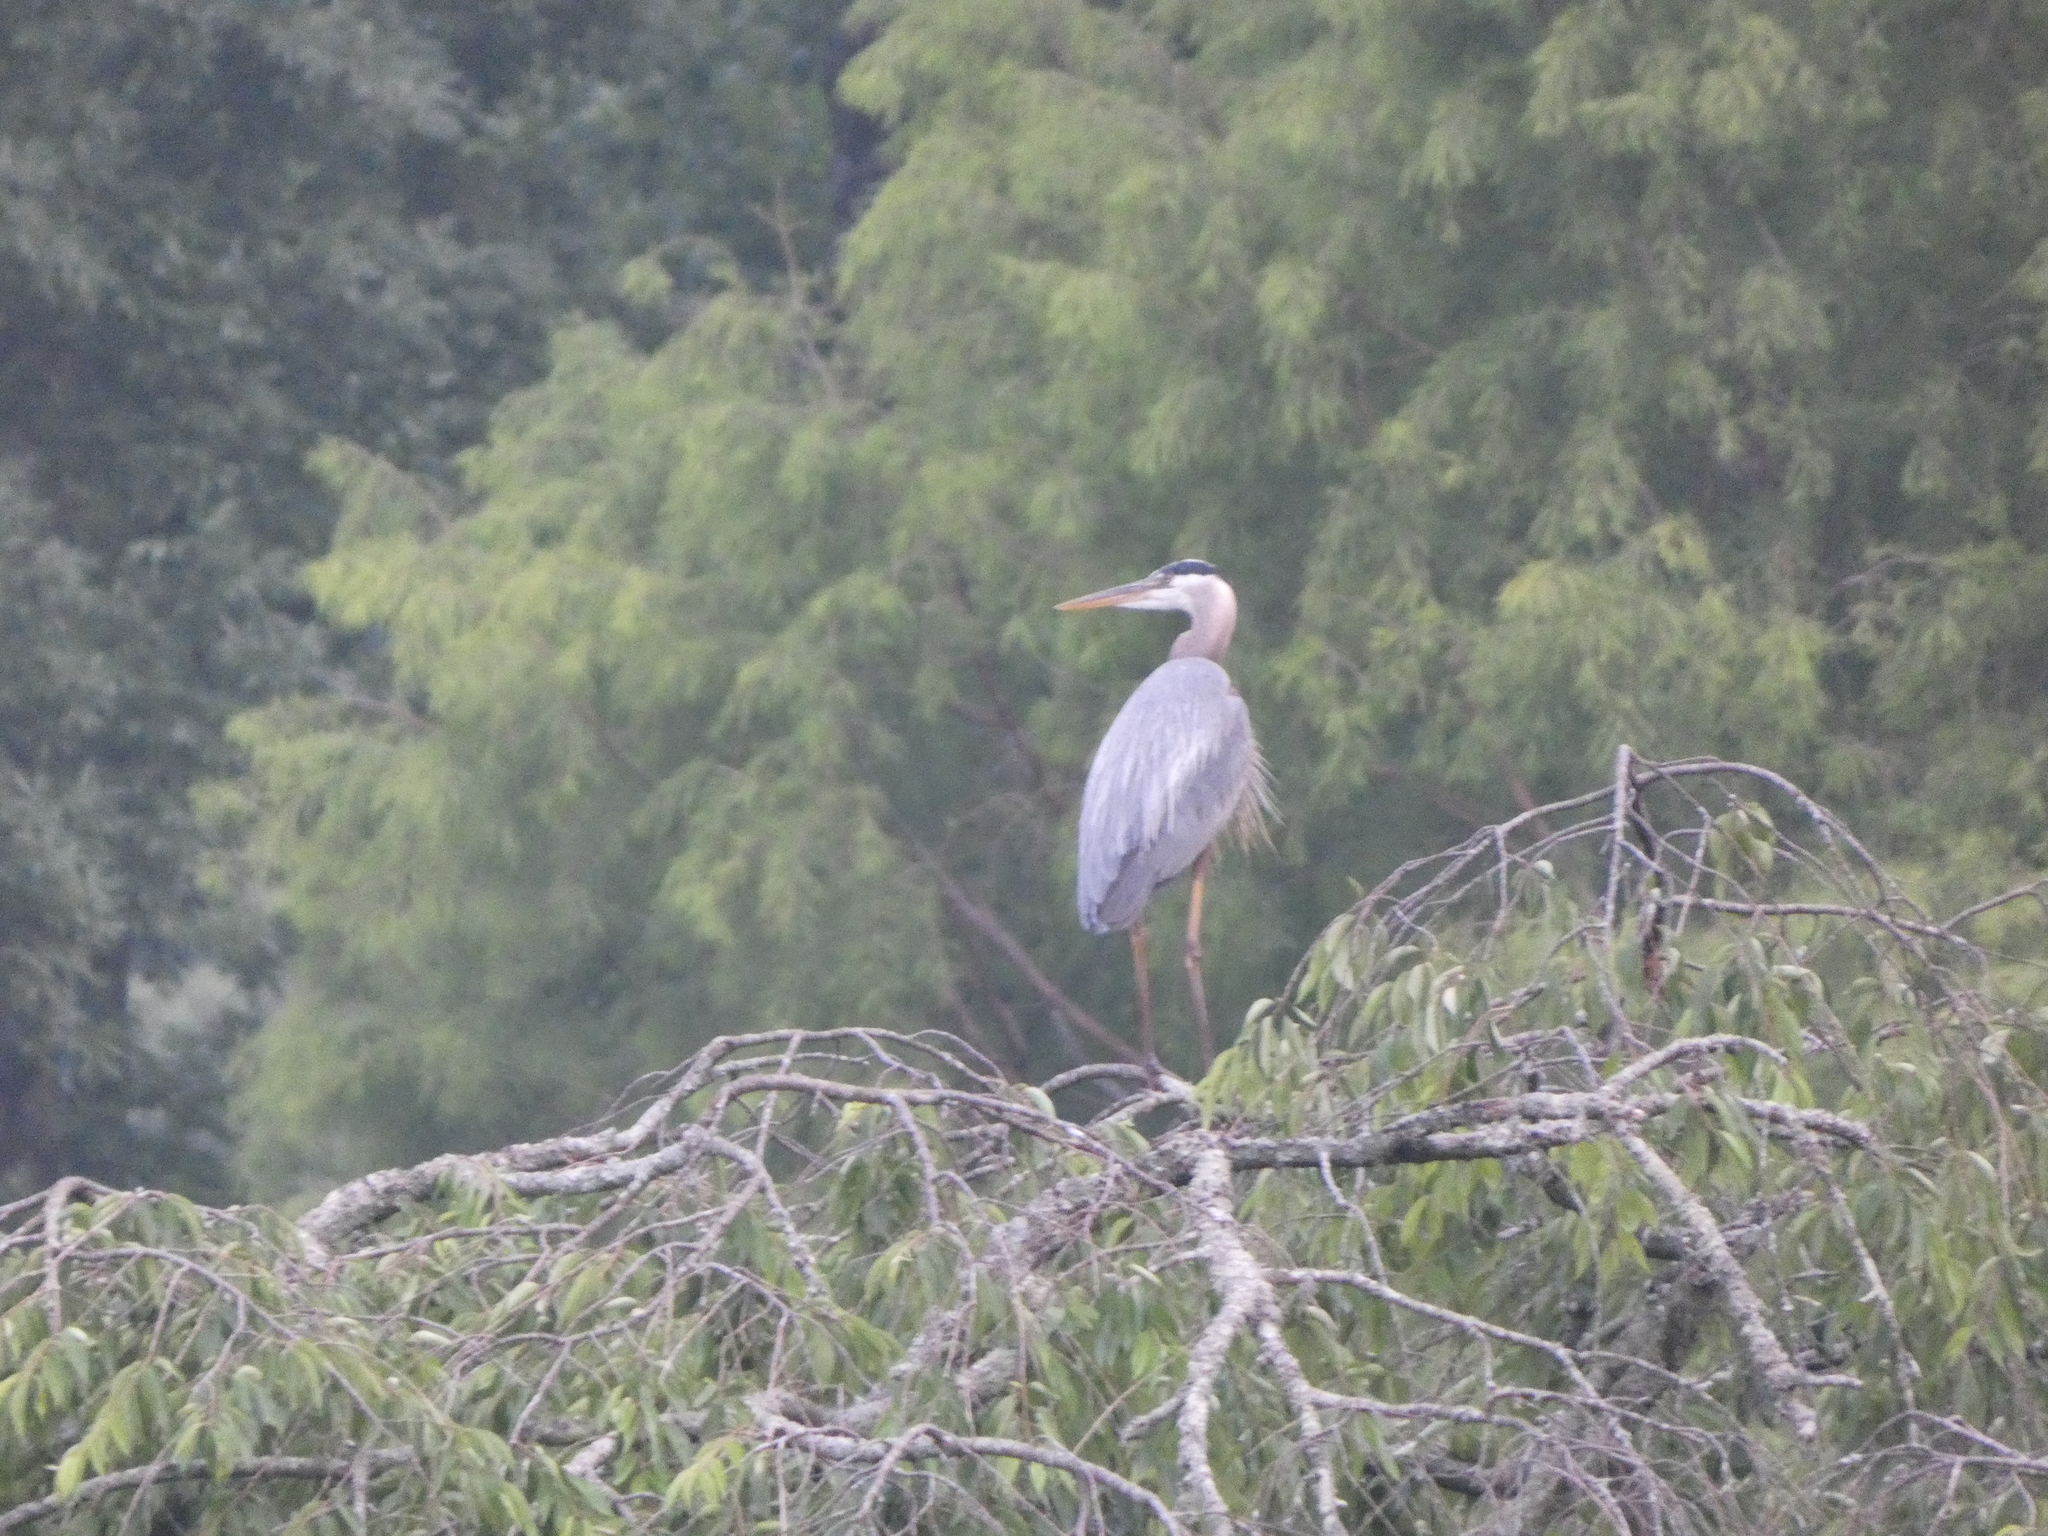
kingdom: Animalia
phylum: Chordata
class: Aves
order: Pelecaniformes
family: Ardeidae
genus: Ardea
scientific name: Ardea herodias
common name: Great blue heron
